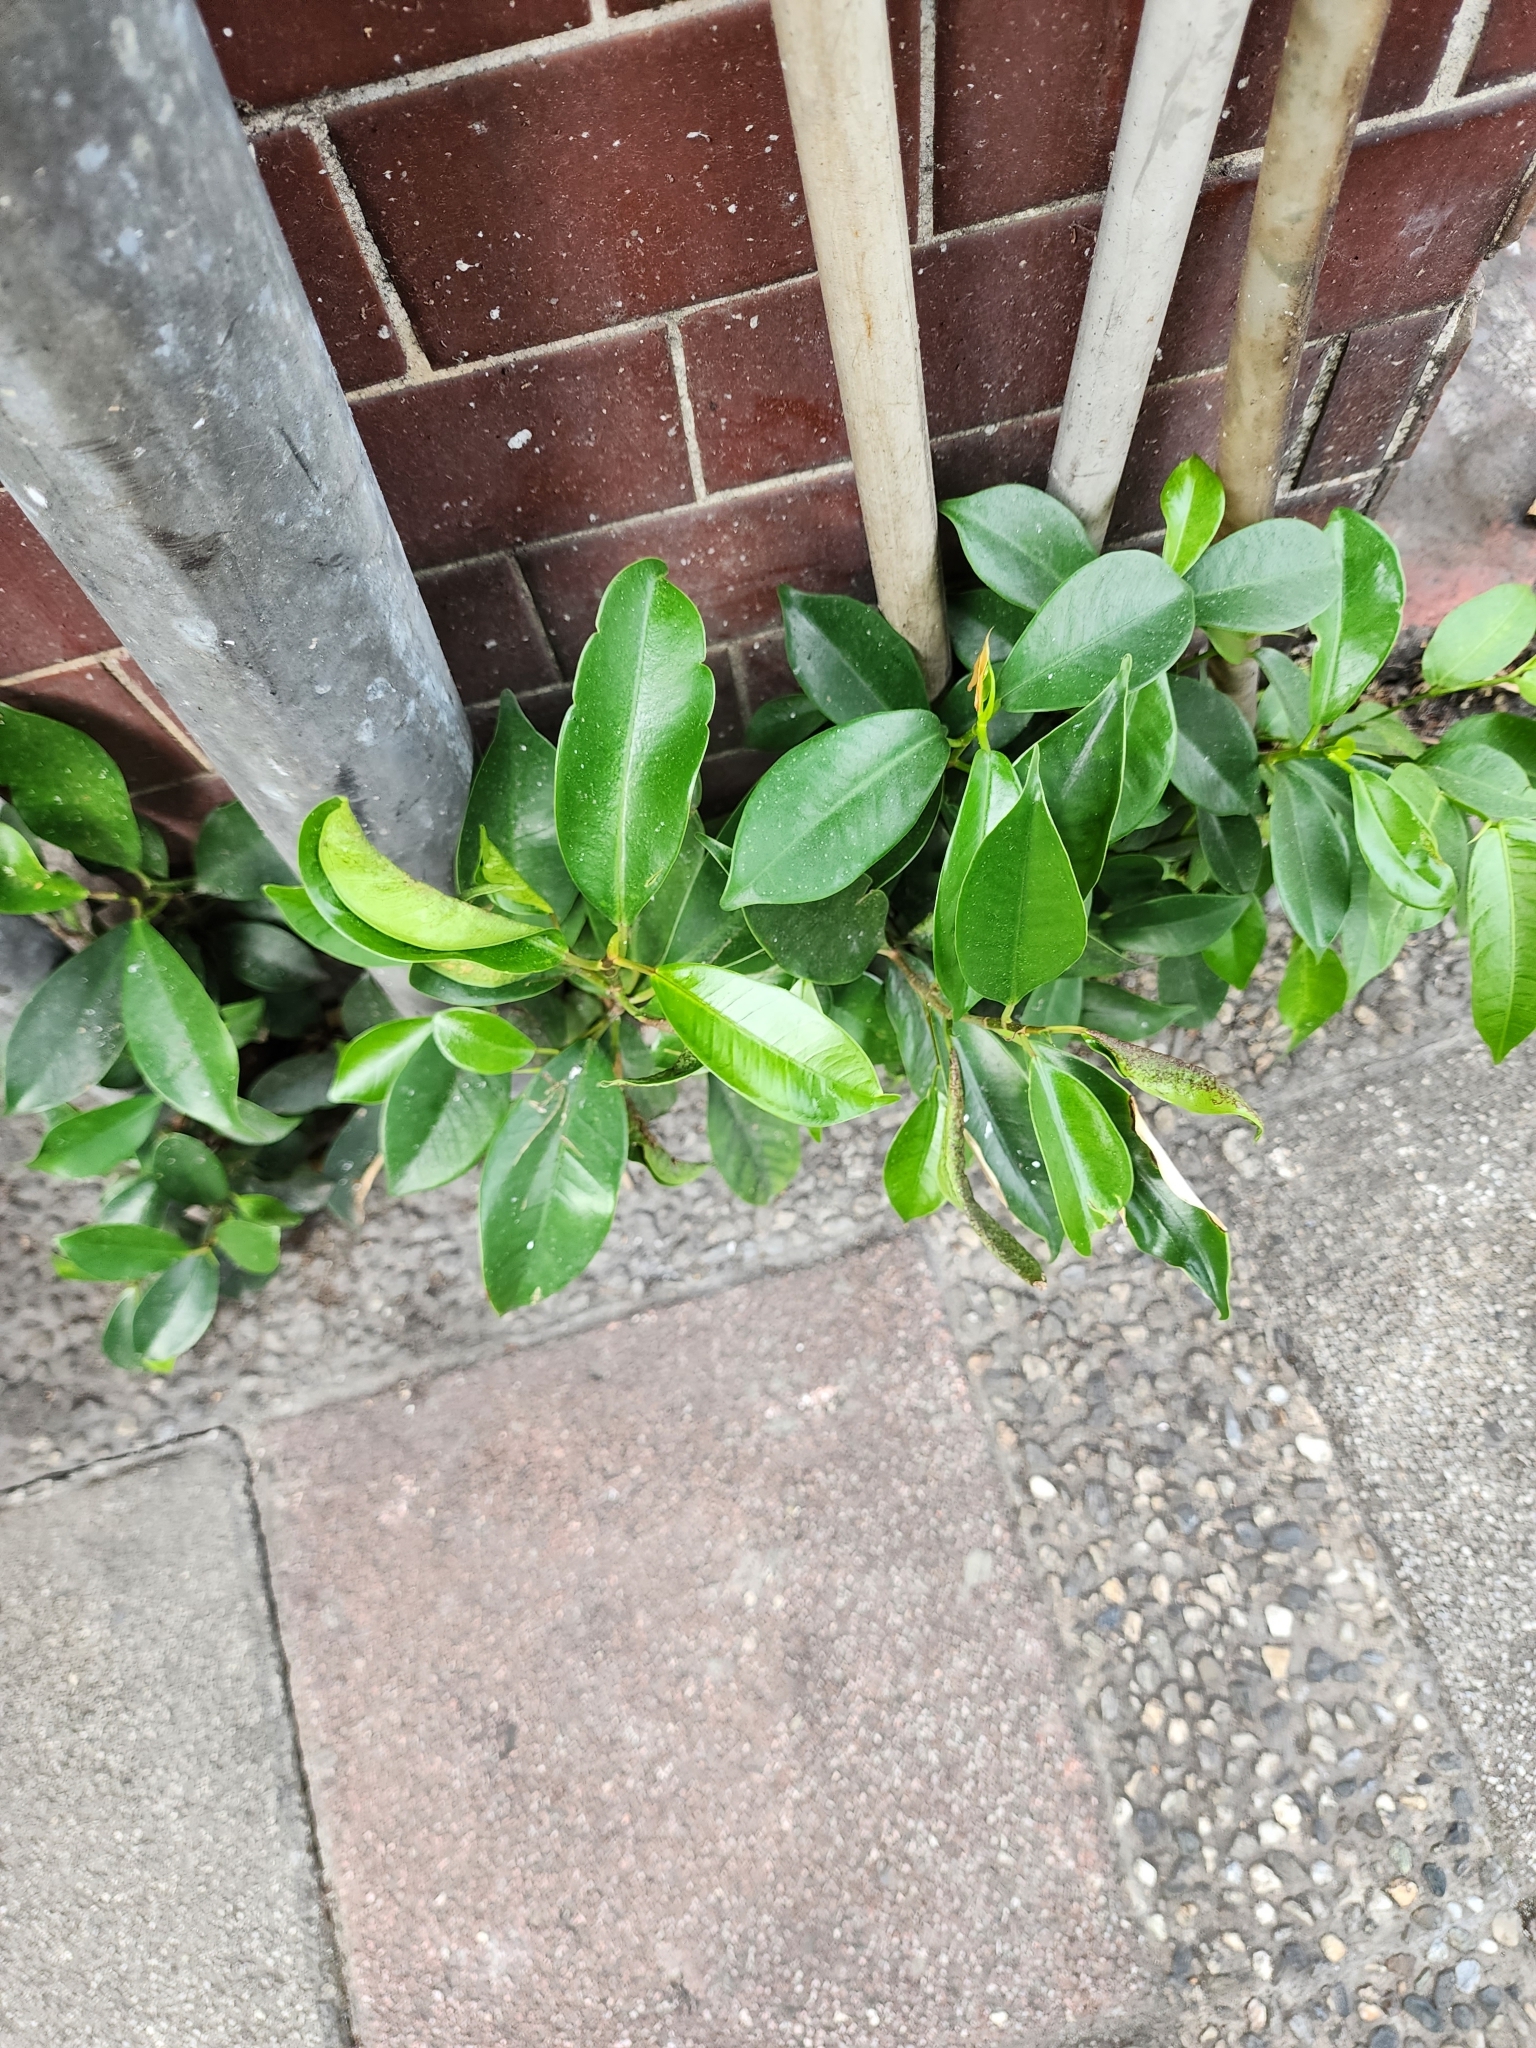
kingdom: Plantae
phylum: Tracheophyta
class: Magnoliopsida
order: Rosales
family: Moraceae
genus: Ficus
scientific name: Ficus microcarpa
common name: Chinese banyan
